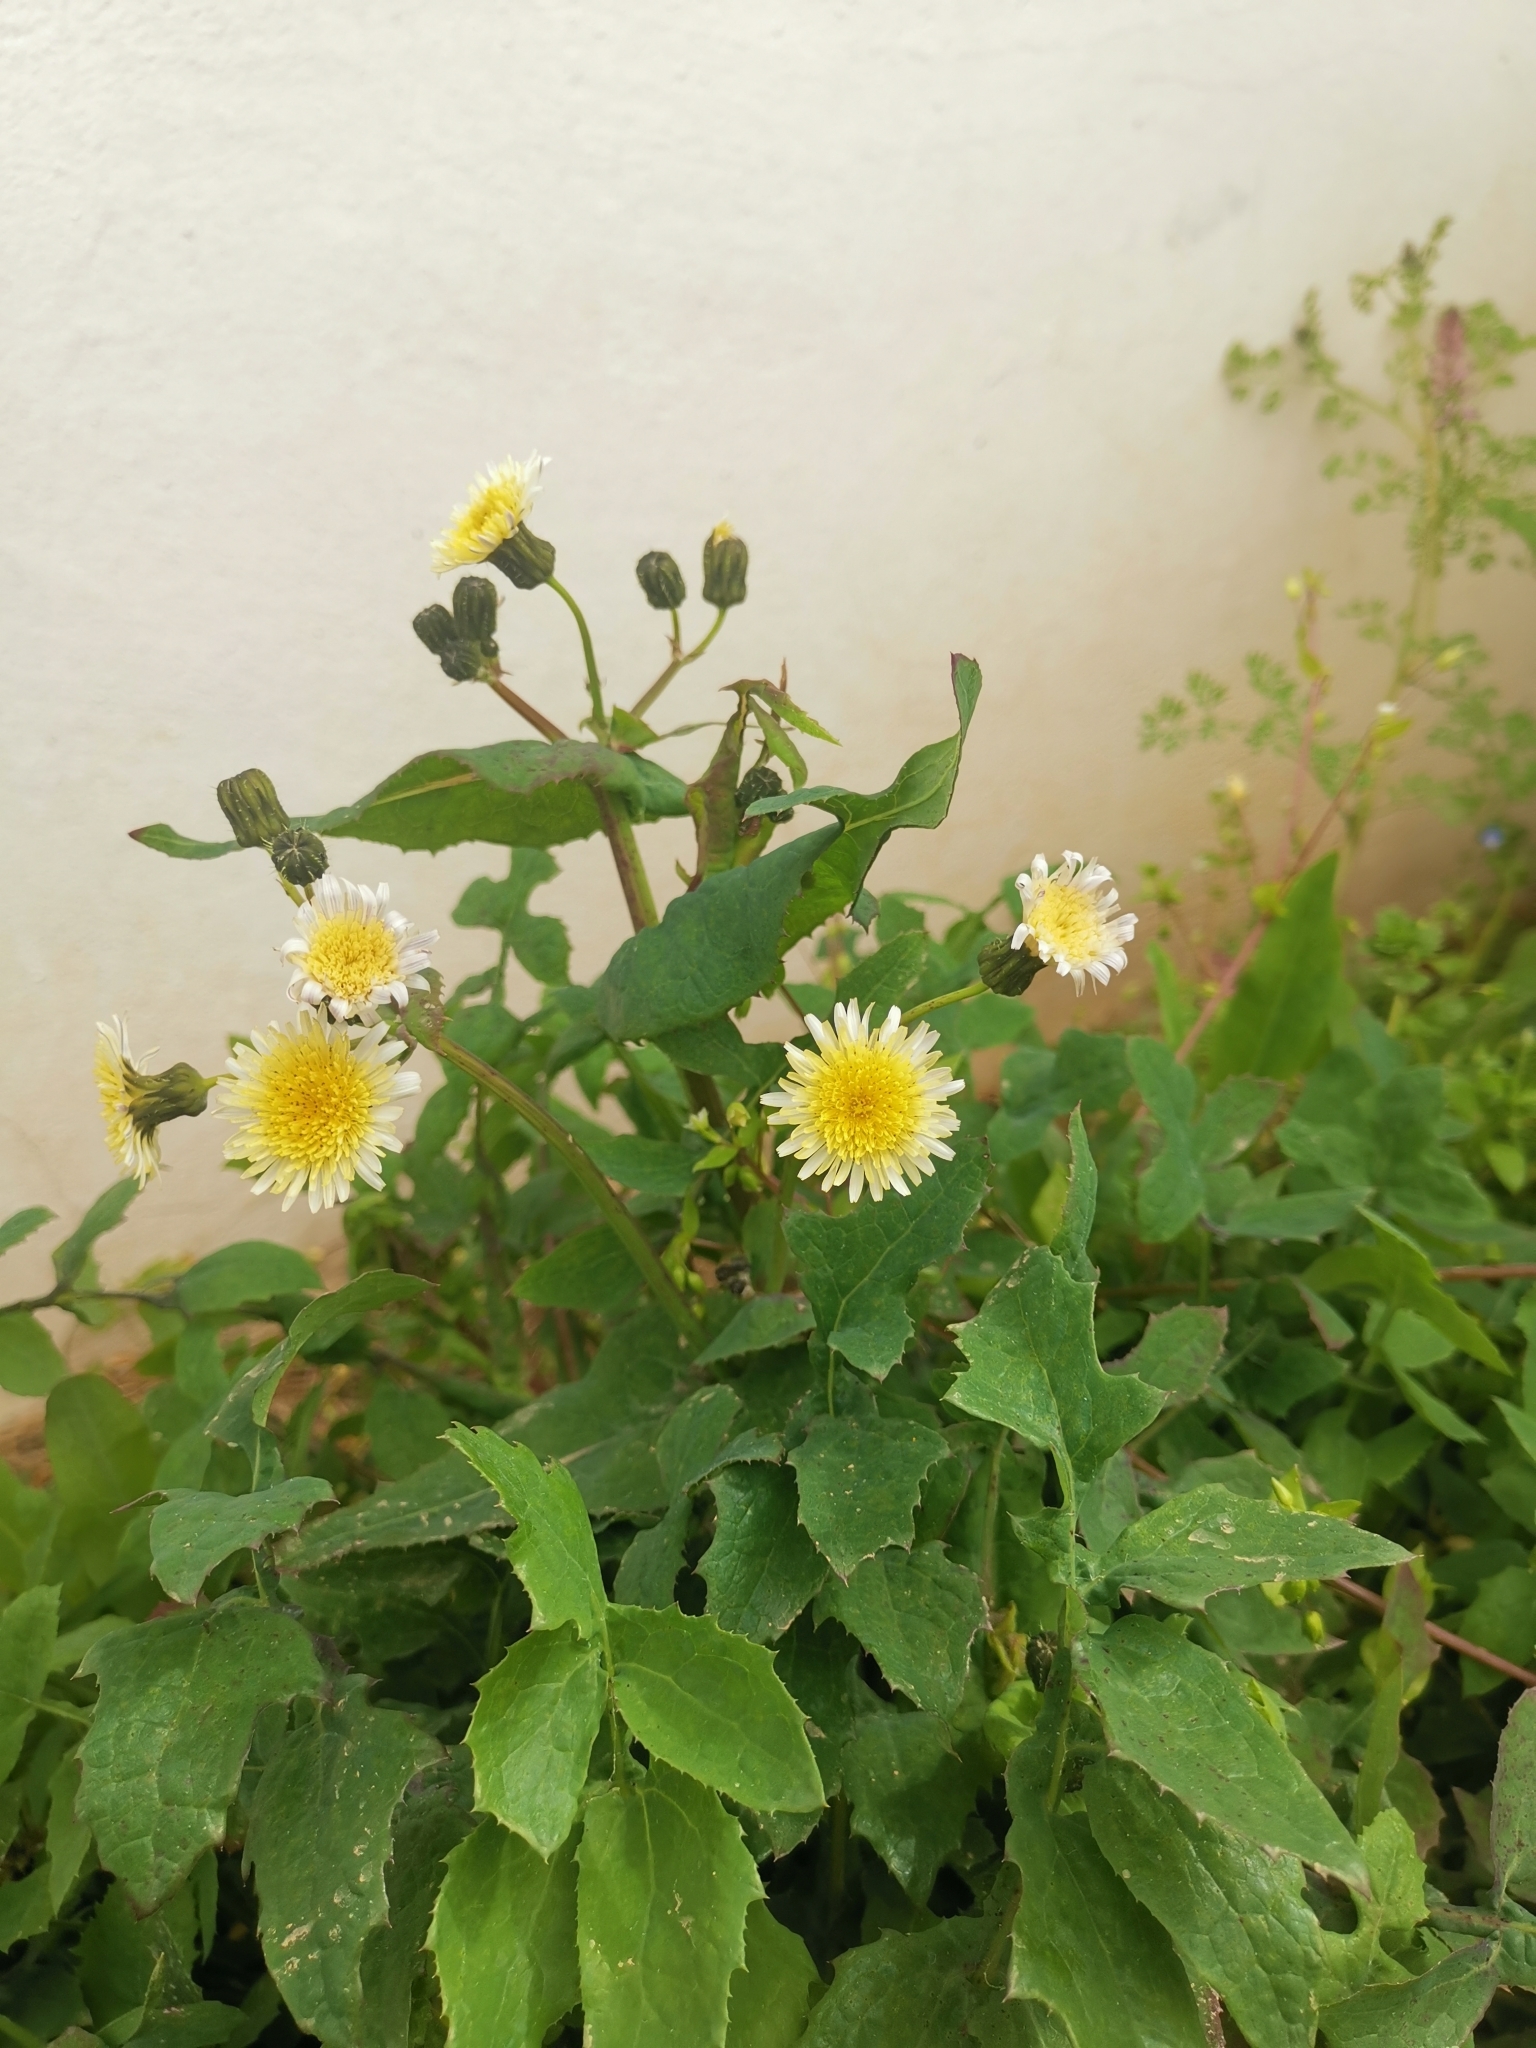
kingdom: Plantae
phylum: Tracheophyta
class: Magnoliopsida
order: Asterales
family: Asteraceae
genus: Sonchus
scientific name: Sonchus oleraceus
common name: Common sowthistle
